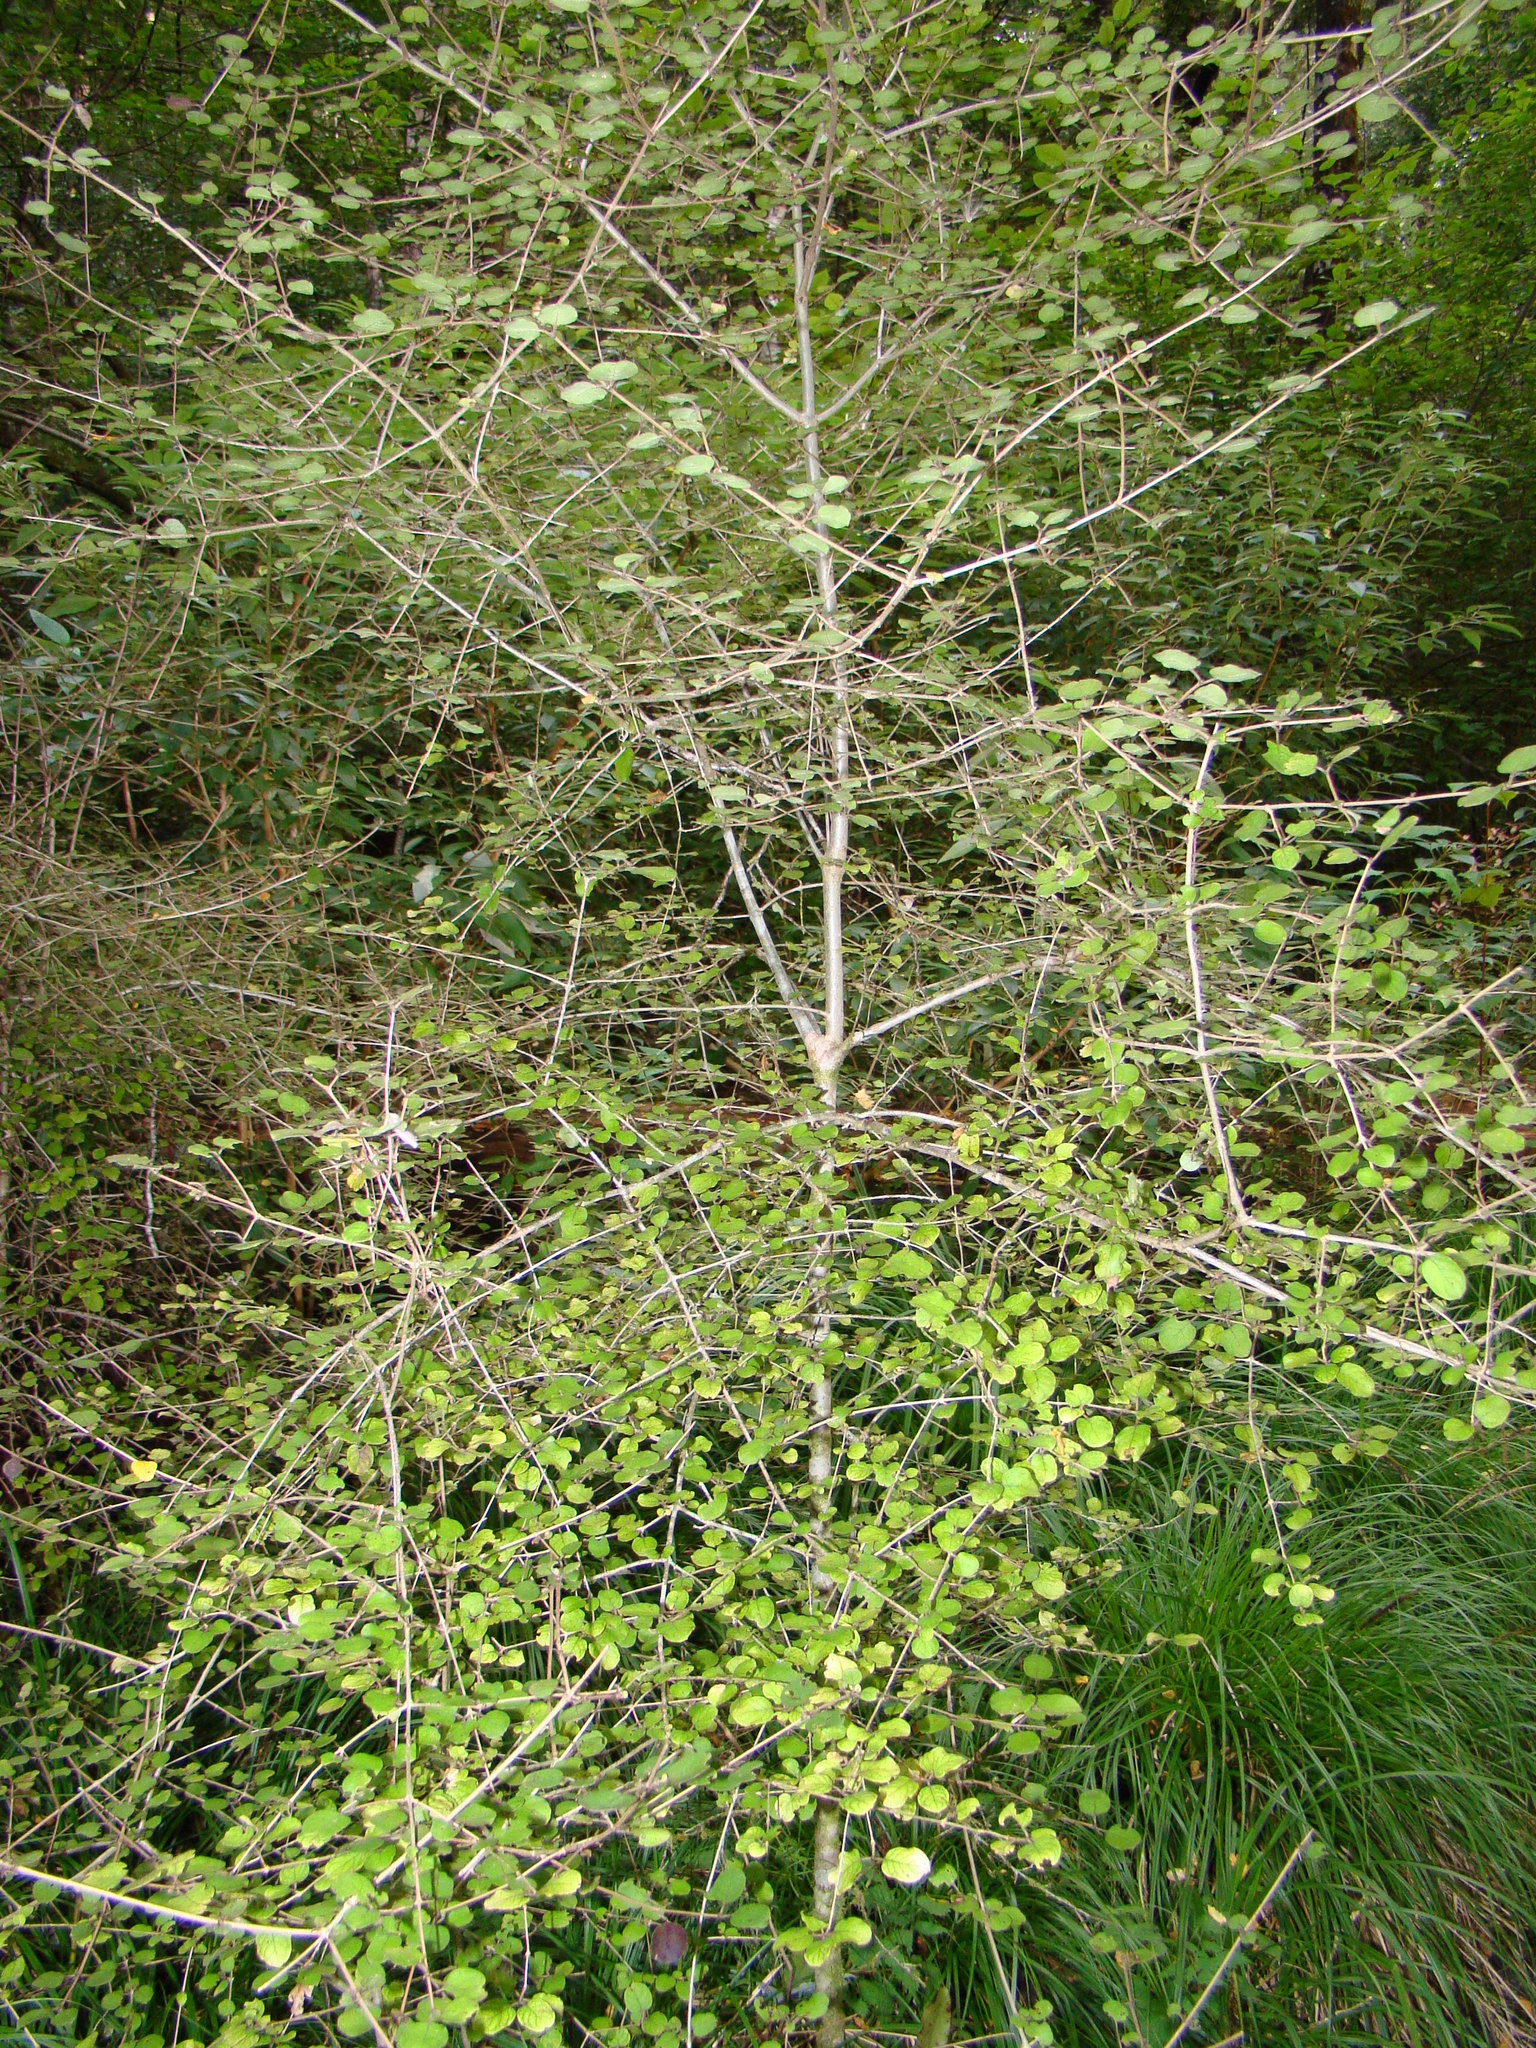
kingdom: Plantae
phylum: Tracheophyta
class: Magnoliopsida
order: Gentianales
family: Rubiaceae
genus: Coprosma
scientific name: Coprosma rotundifolia
